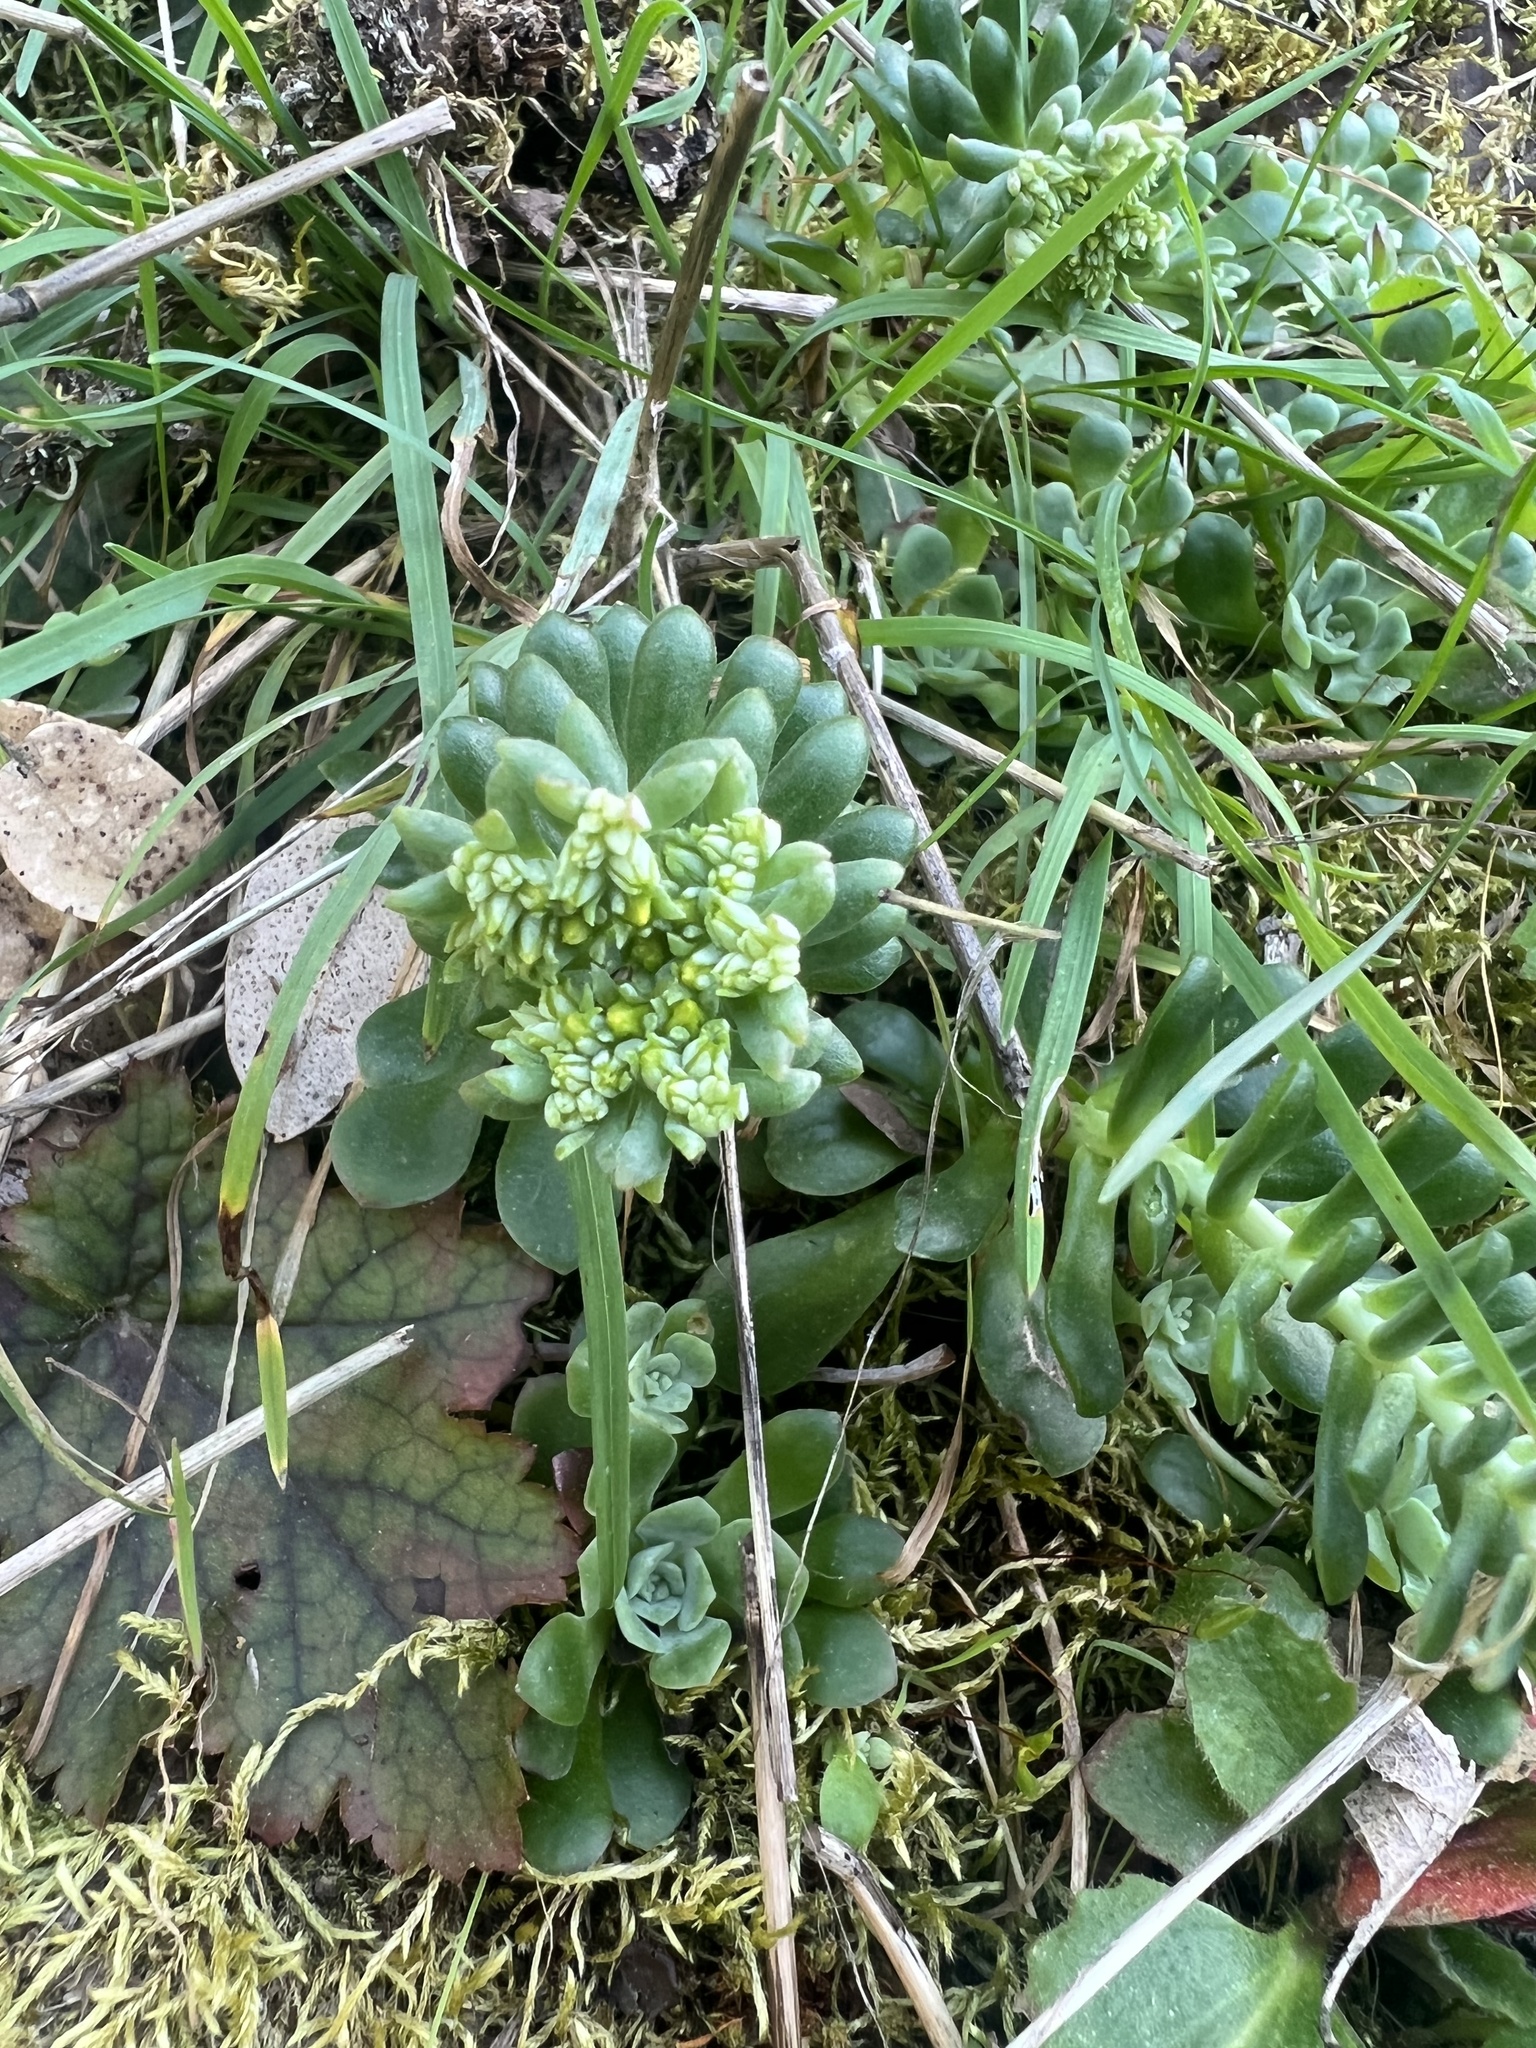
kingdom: Plantae
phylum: Tracheophyta
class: Magnoliopsida
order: Saxifragales
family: Crassulaceae
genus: Sedum
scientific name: Sedum spathulifolium
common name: Colorado stonecrop
